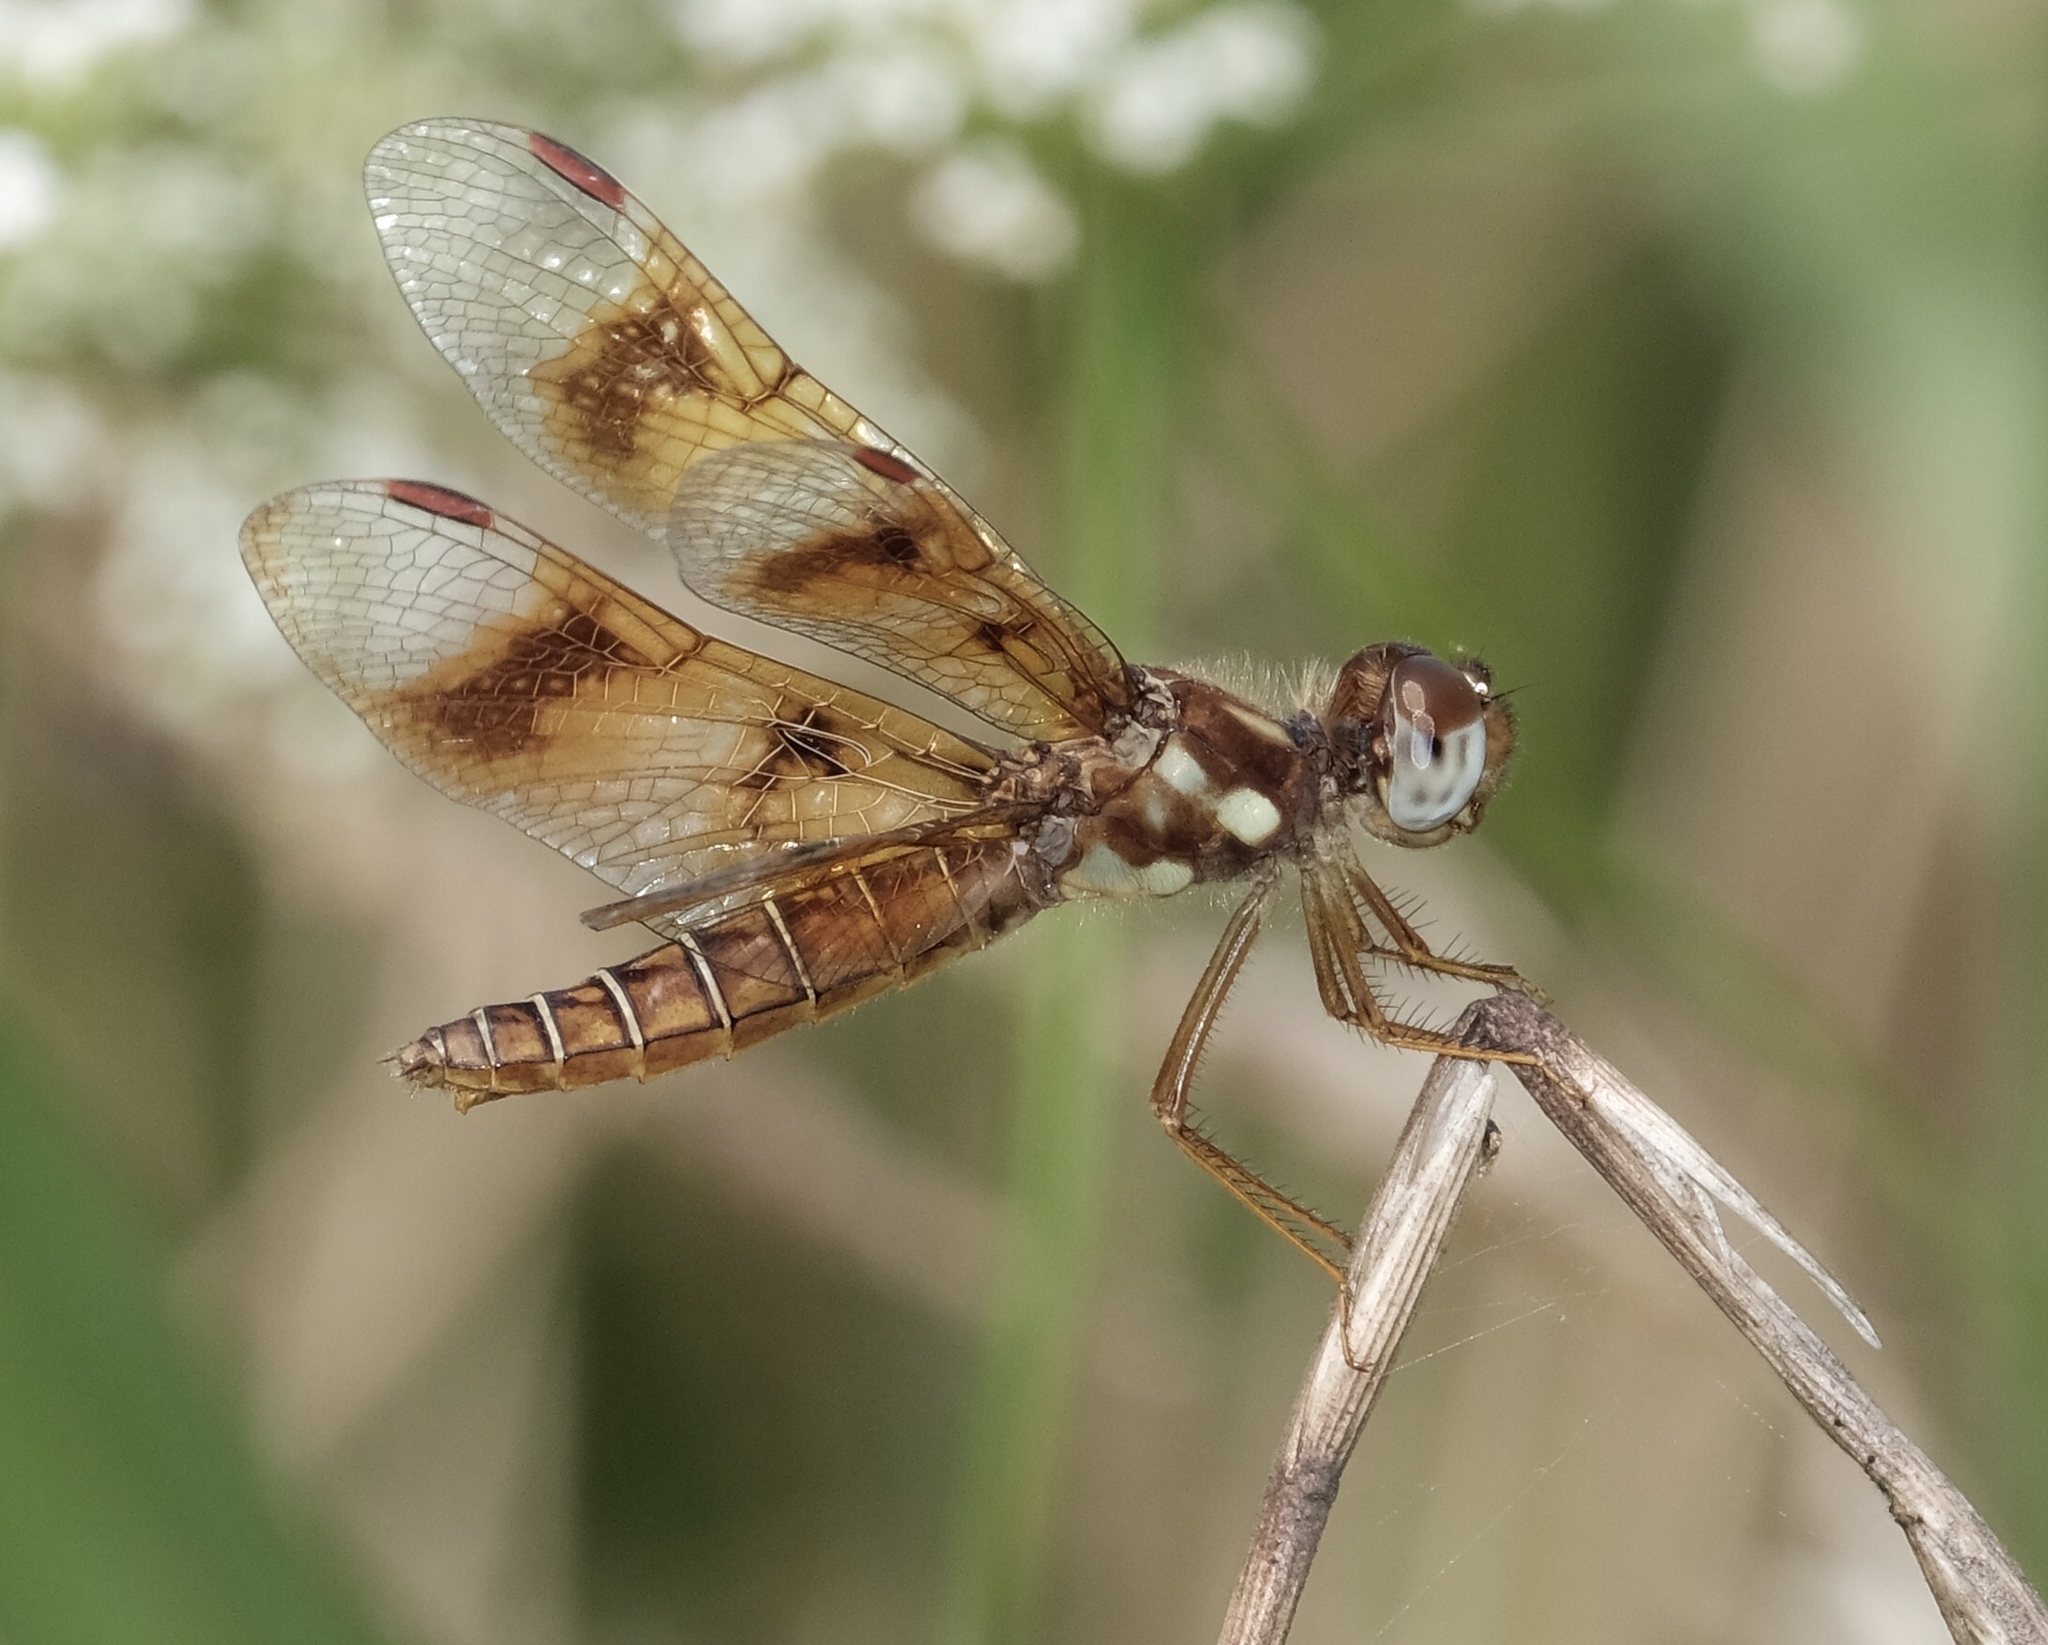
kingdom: Animalia
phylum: Arthropoda
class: Insecta
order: Odonata
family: Libellulidae
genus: Perithemis
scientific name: Perithemis tenera
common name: Eastern amberwing
